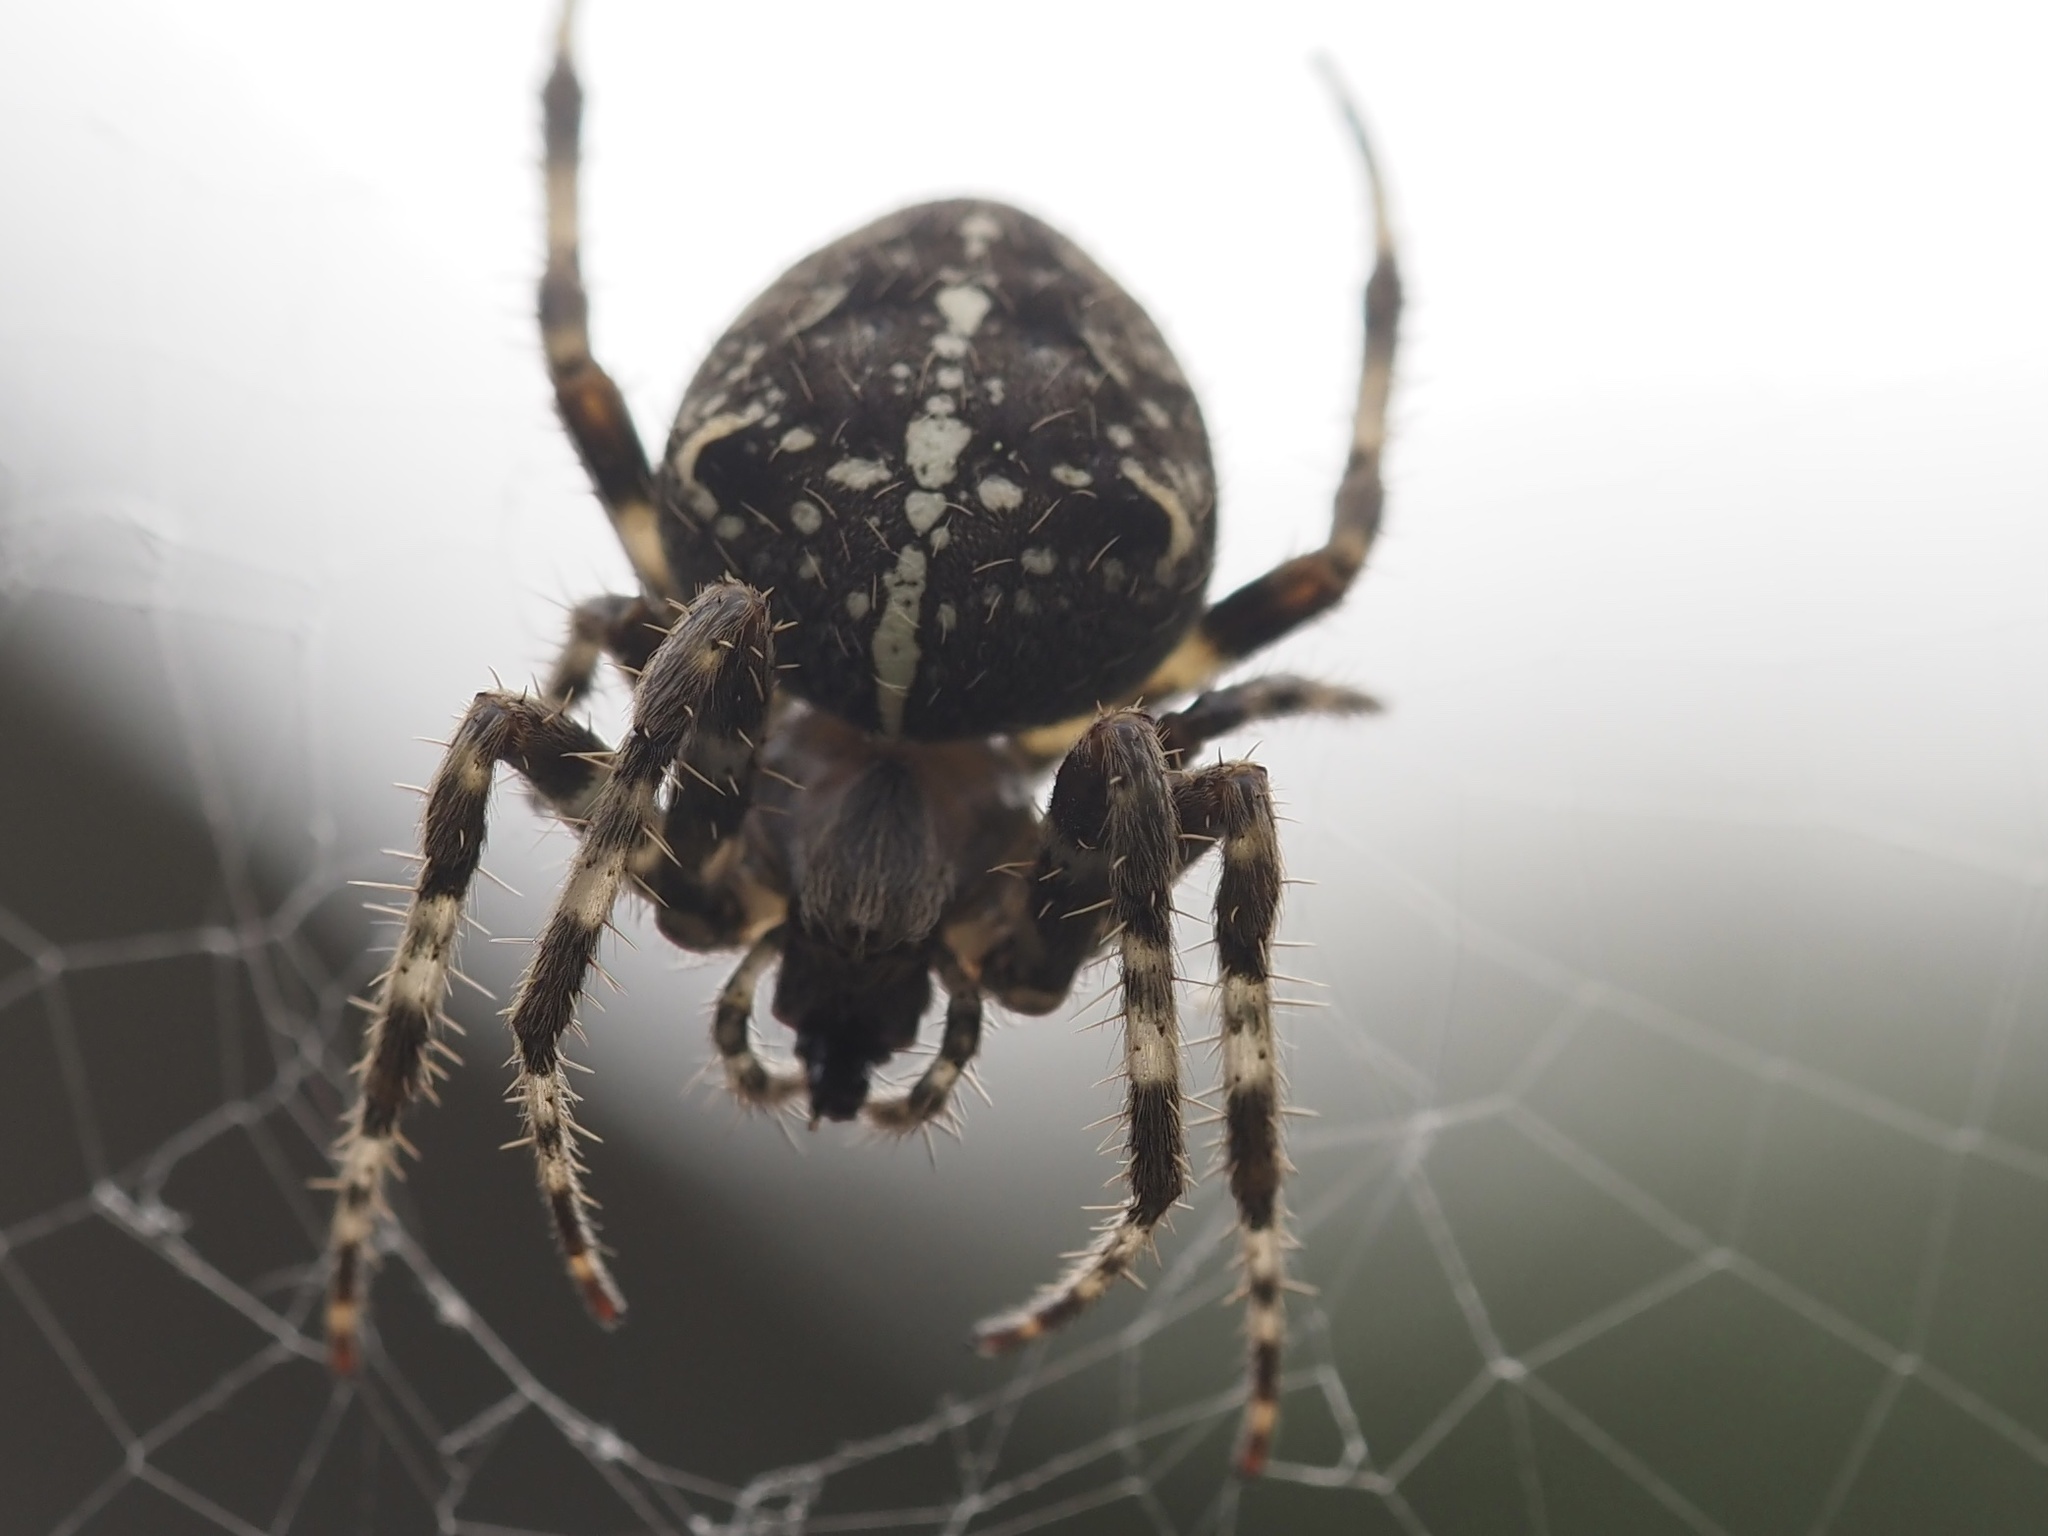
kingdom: Animalia
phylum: Arthropoda
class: Arachnida
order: Araneae
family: Araneidae
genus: Araneus
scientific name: Araneus diadematus
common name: Cross orbweaver
